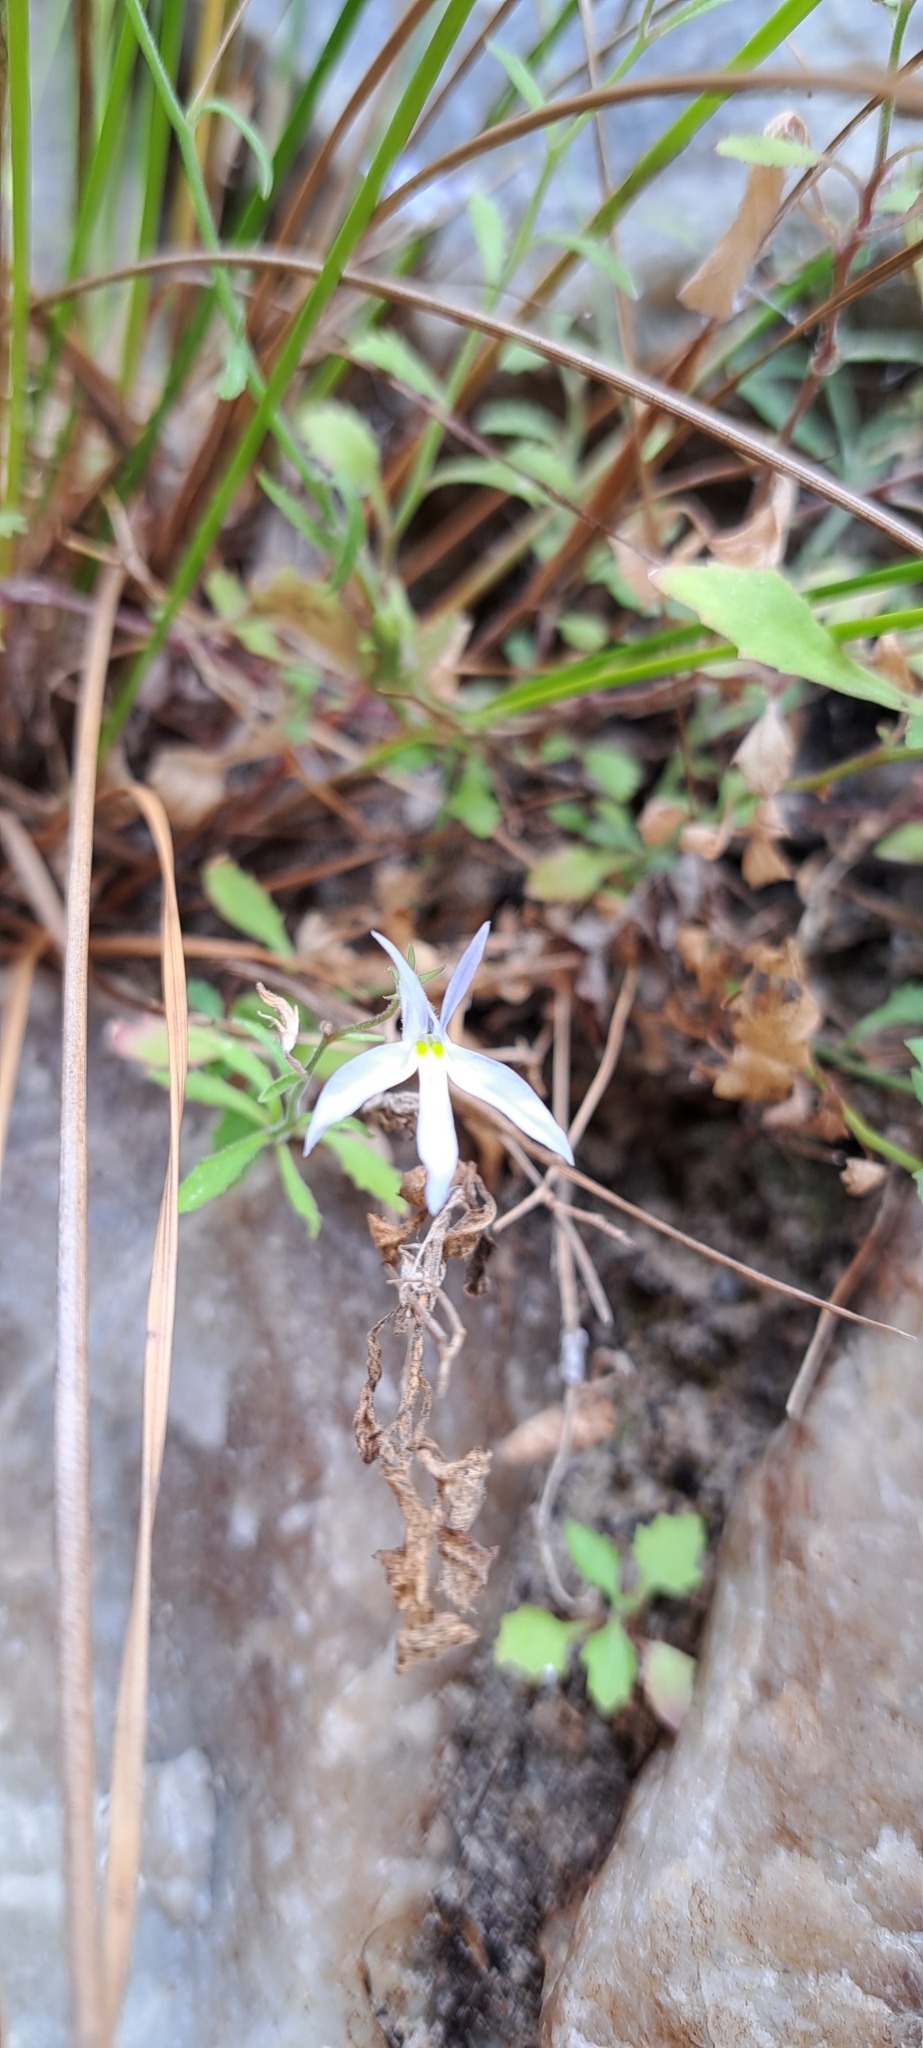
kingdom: Plantae
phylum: Tracheophyta
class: Magnoliopsida
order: Asterales
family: Campanulaceae
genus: Lobelia
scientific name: Lobelia pubescens
